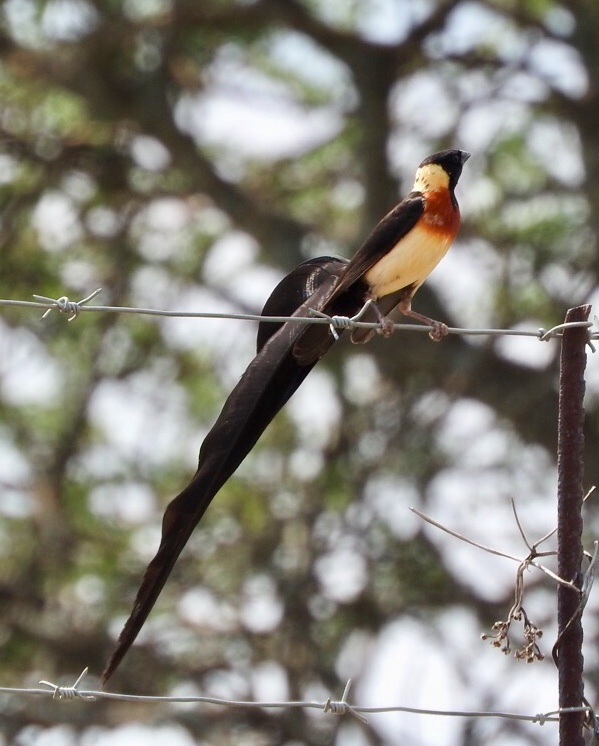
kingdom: Animalia
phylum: Chordata
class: Aves
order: Passeriformes
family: Viduidae
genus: Vidua
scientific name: Vidua paradisaea
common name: Long-tailed paradise whydah
